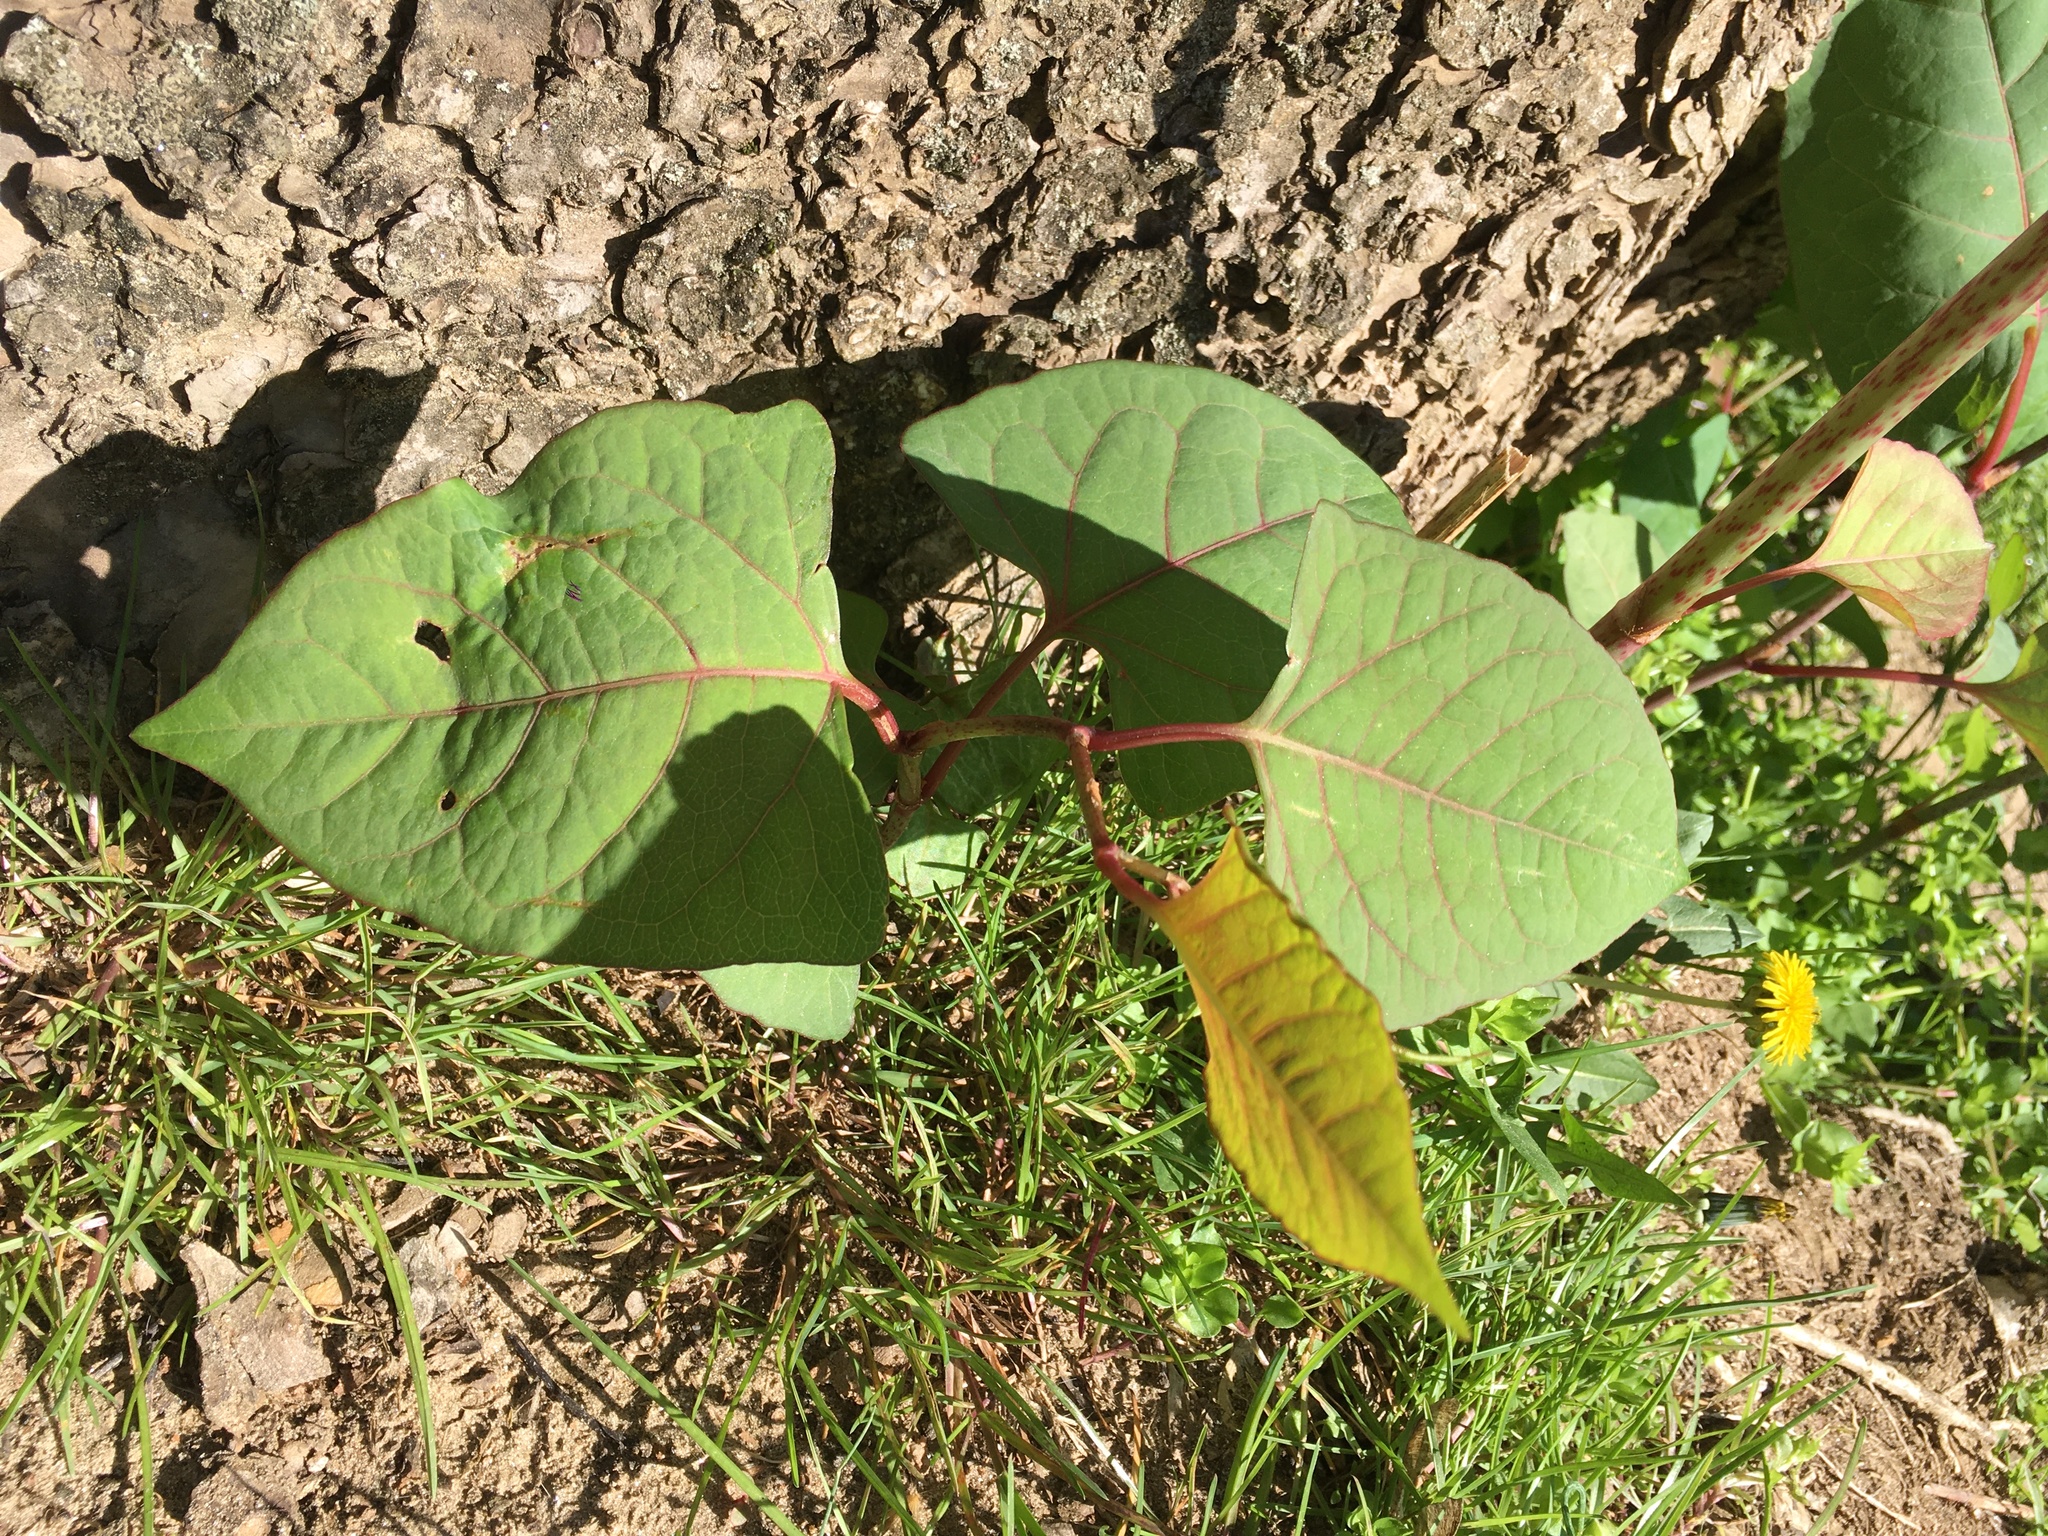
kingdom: Plantae
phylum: Tracheophyta
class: Magnoliopsida
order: Caryophyllales
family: Polygonaceae
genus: Reynoutria
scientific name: Reynoutria japonica
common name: Japanese knotweed
